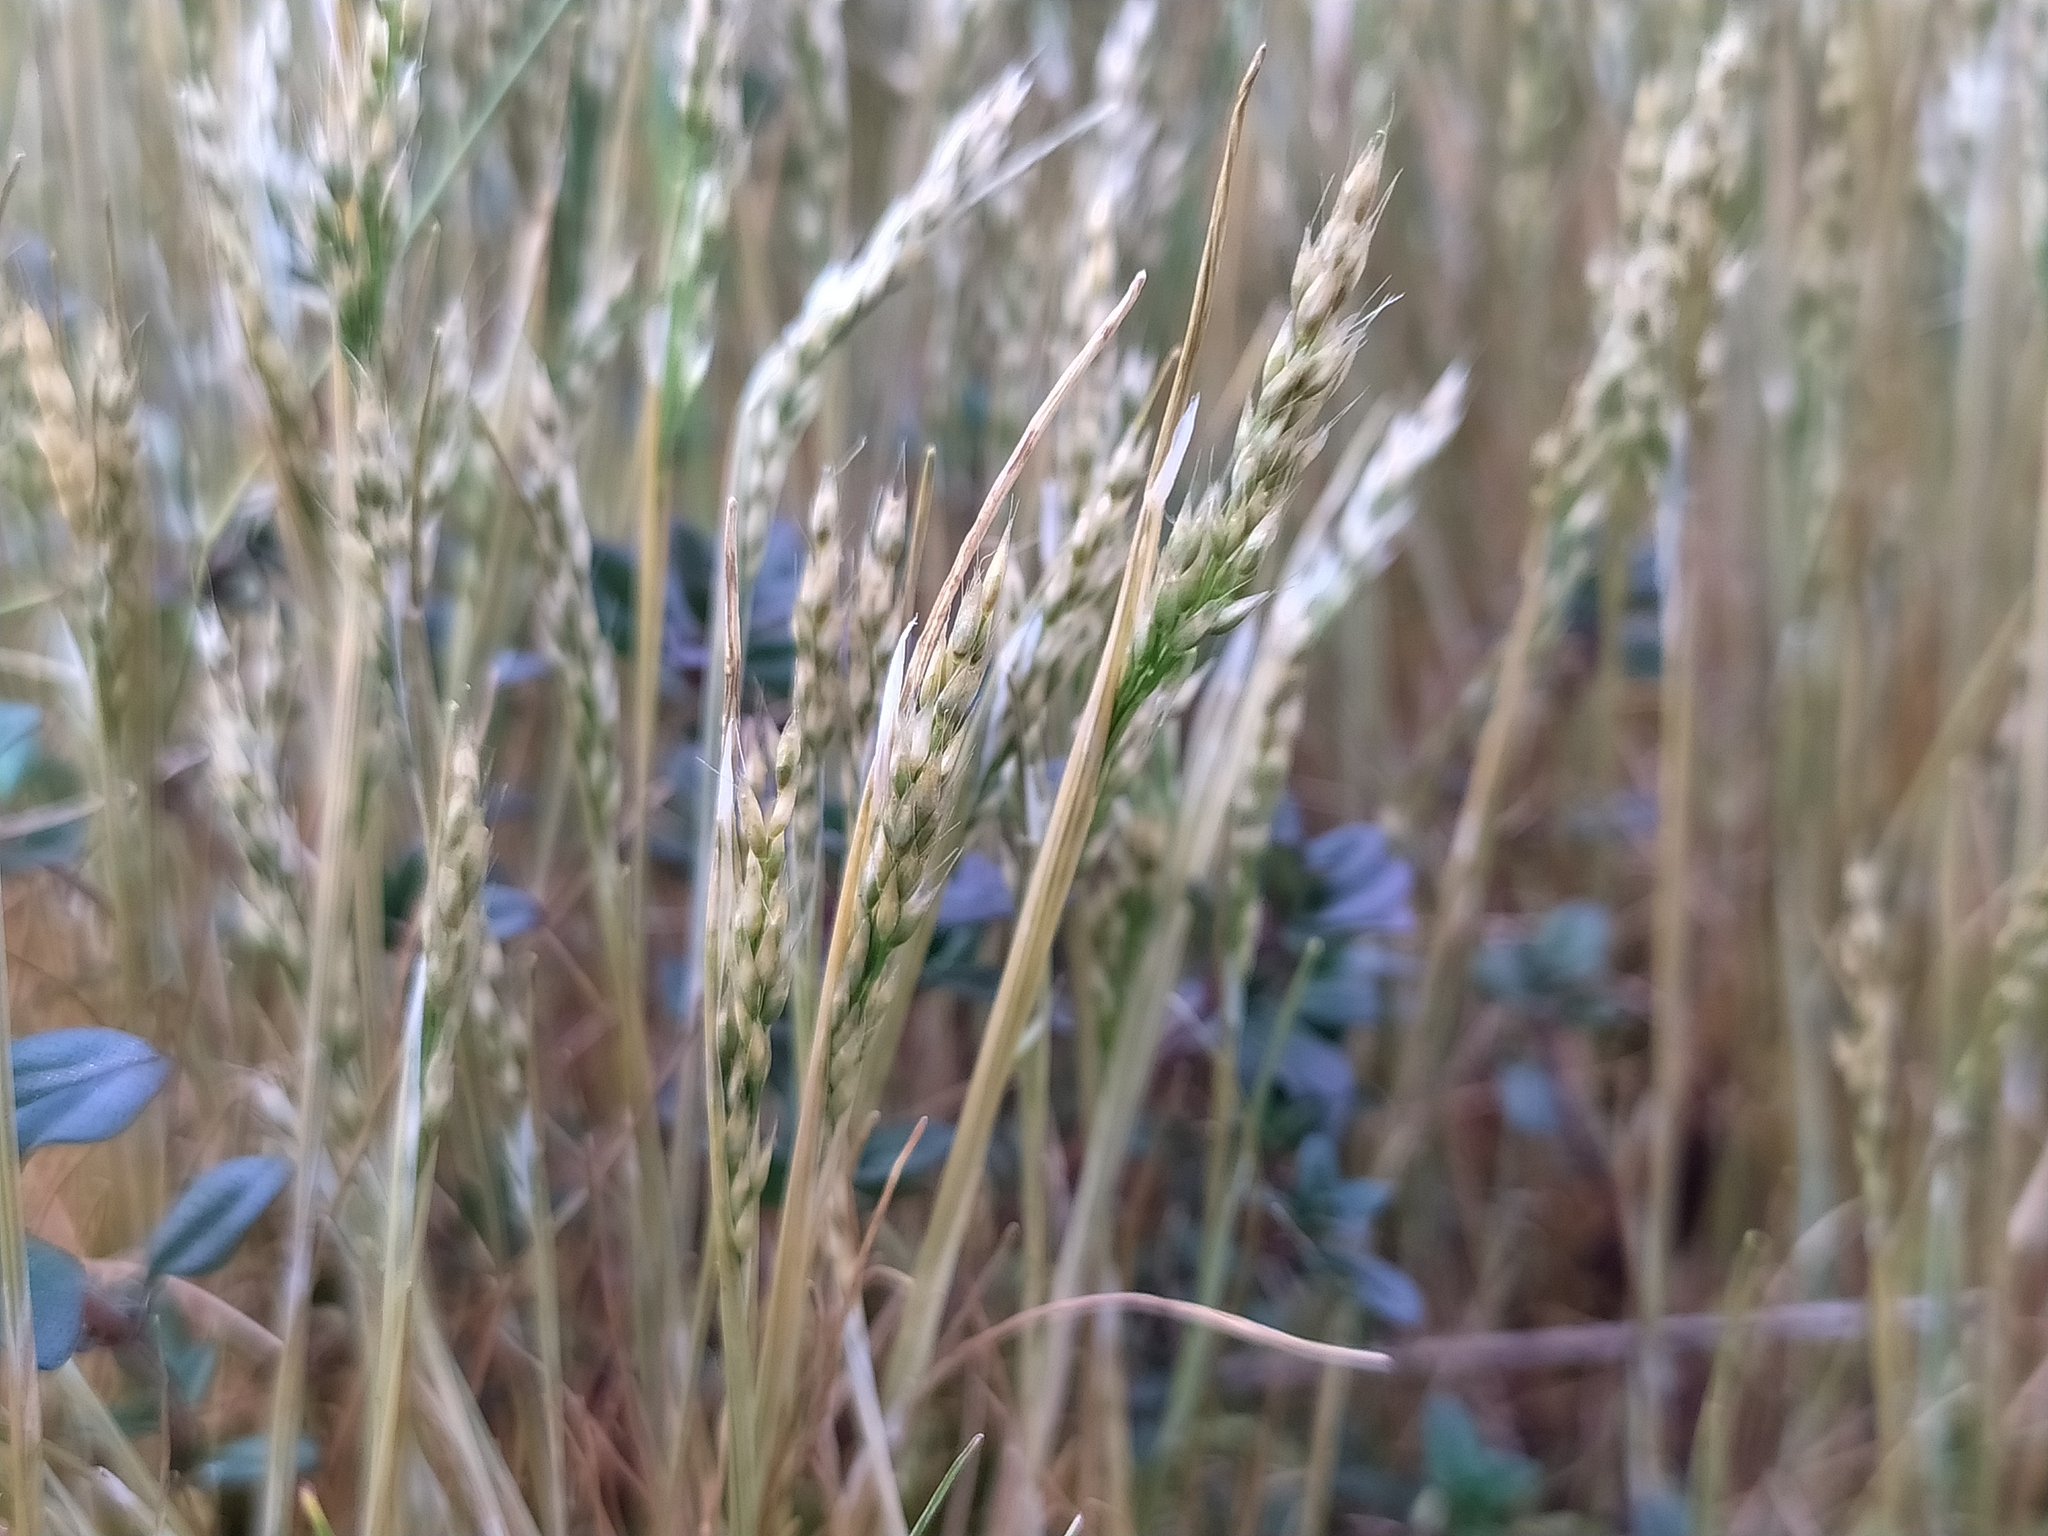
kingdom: Plantae
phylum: Tracheophyta
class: Liliopsida
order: Poales
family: Poaceae
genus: Aira
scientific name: Aira praecox
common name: Early hair-grass
